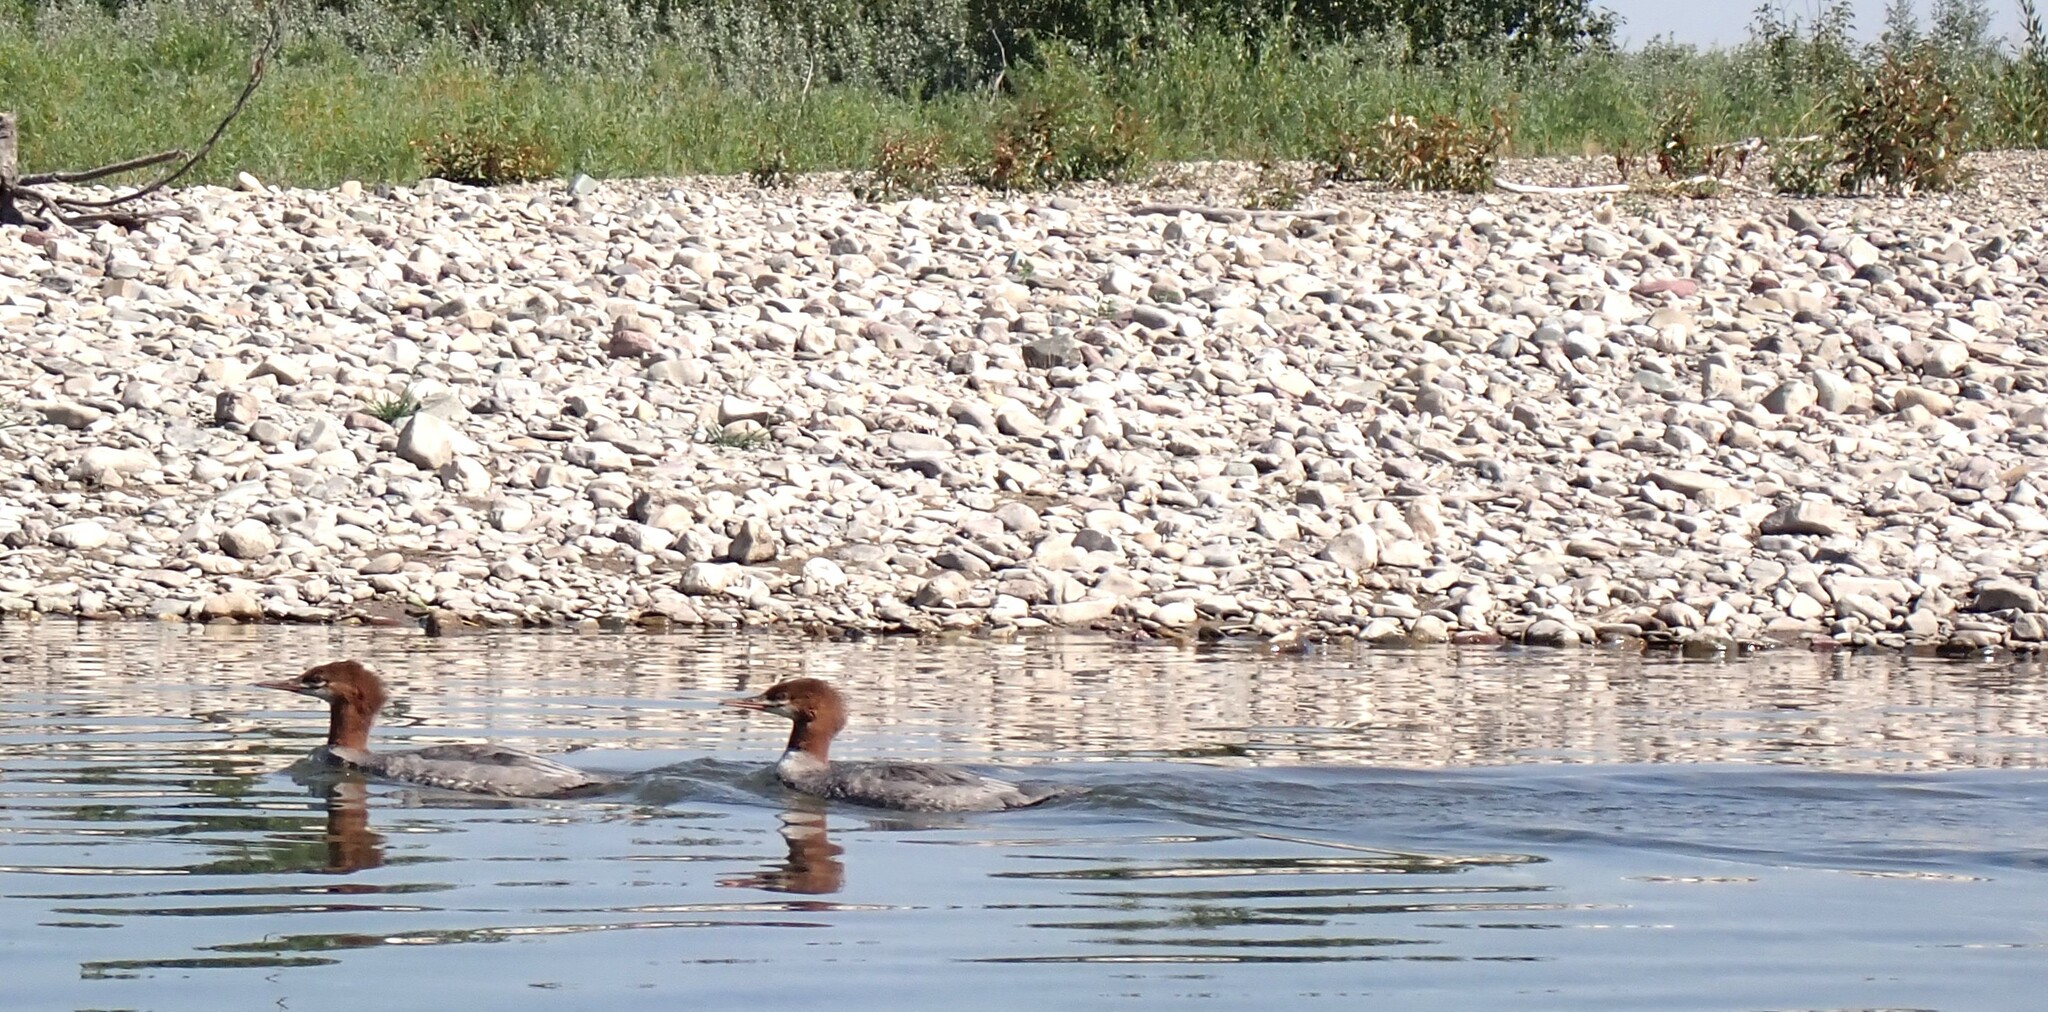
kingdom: Animalia
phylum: Chordata
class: Aves
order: Anseriformes
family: Anatidae
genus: Mergus
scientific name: Mergus merganser
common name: Common merganser
